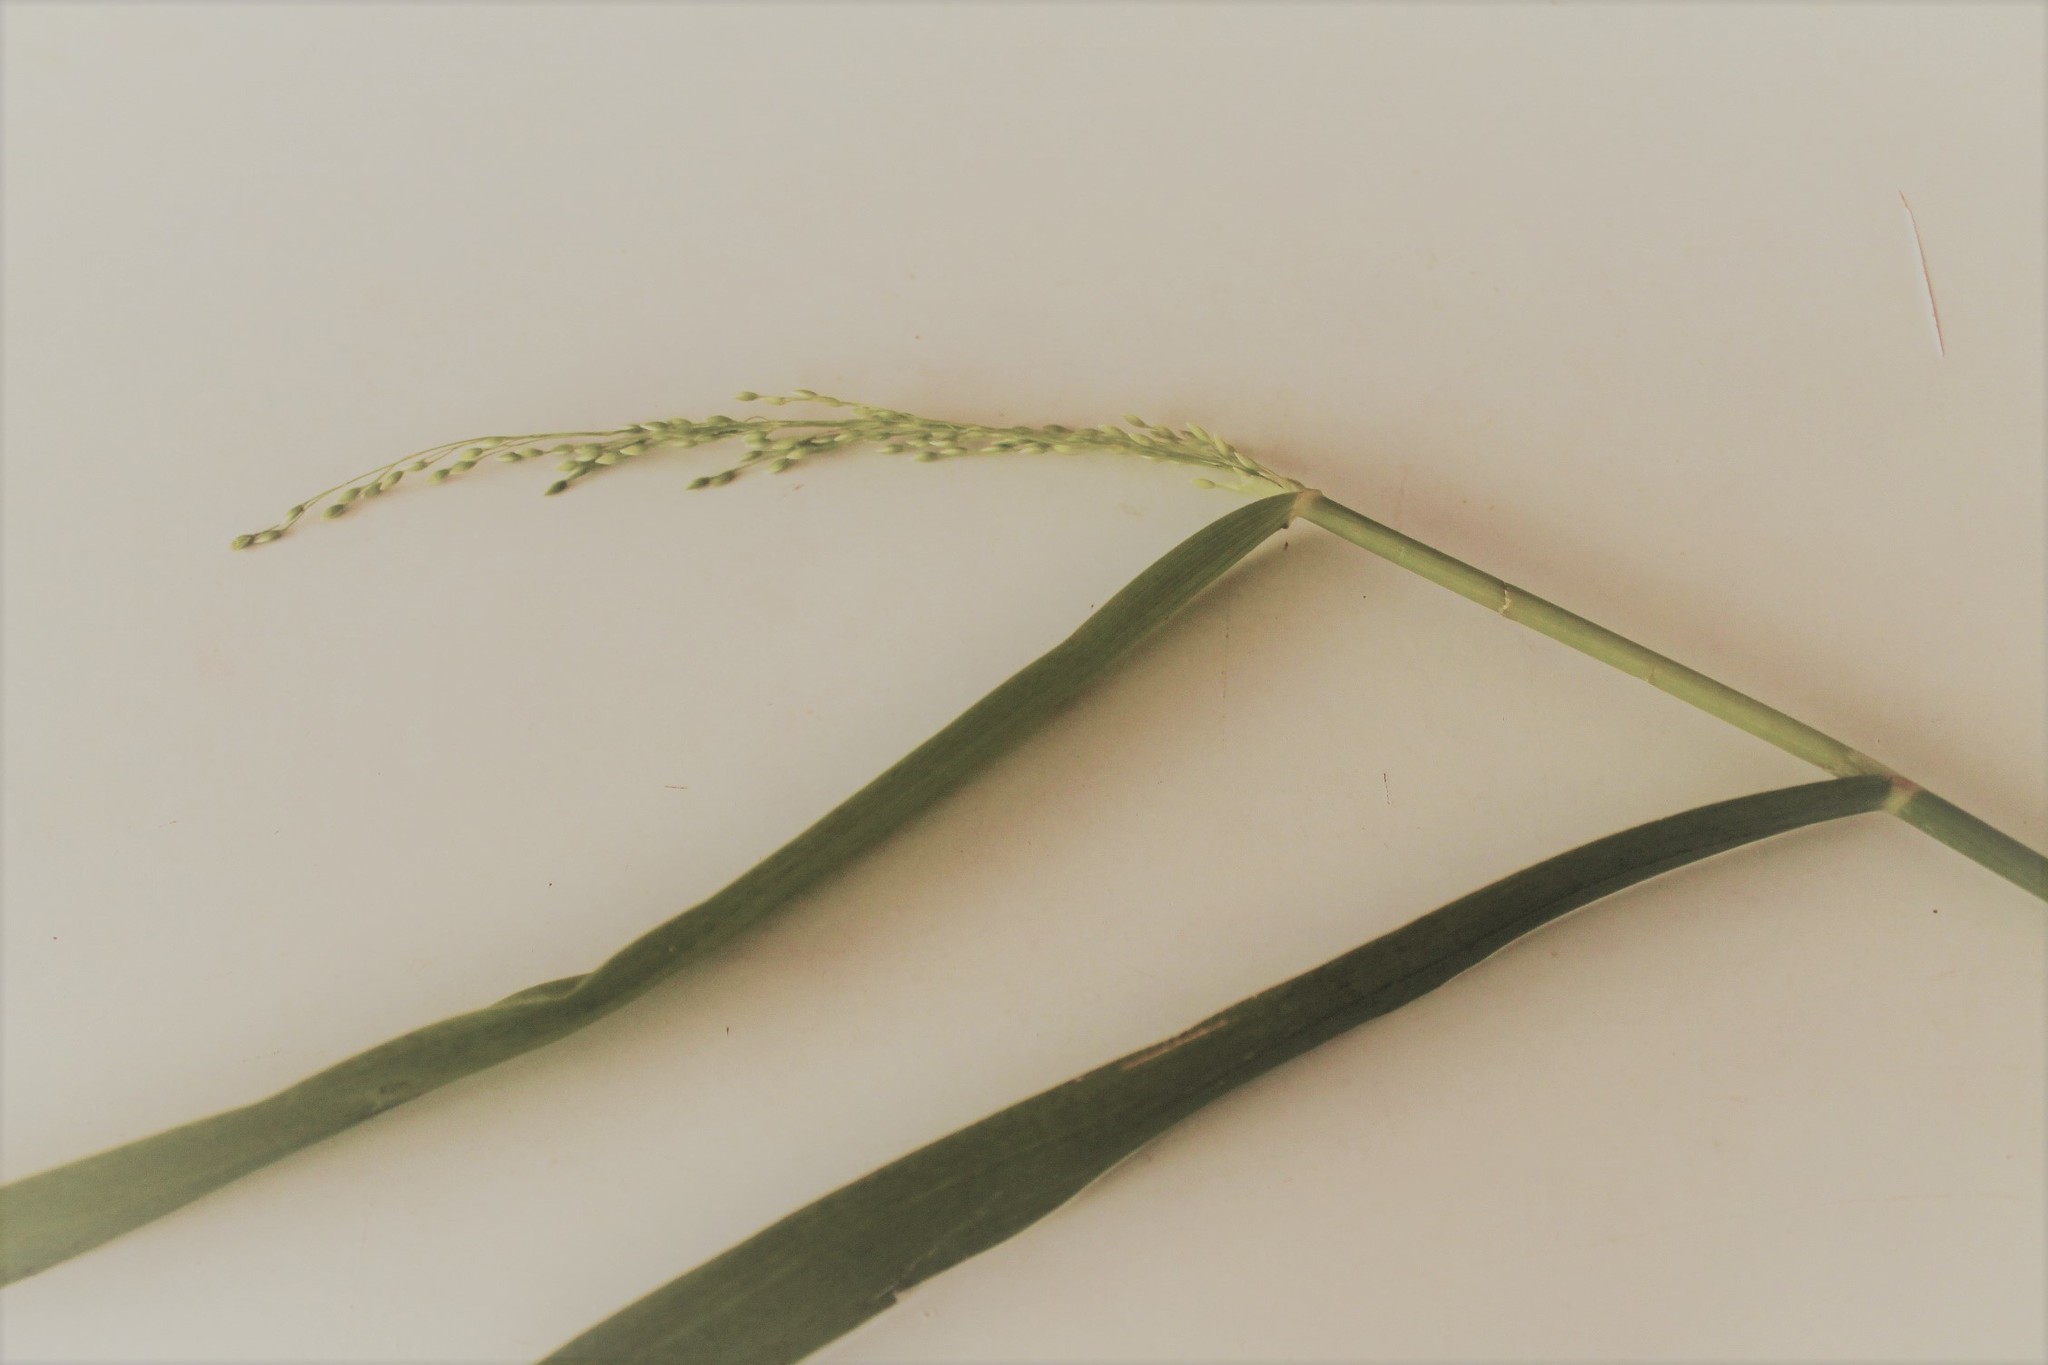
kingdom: Plantae
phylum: Tracheophyta
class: Liliopsida
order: Poales
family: Poaceae
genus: Milium
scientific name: Milium effusum
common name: Wood millet
